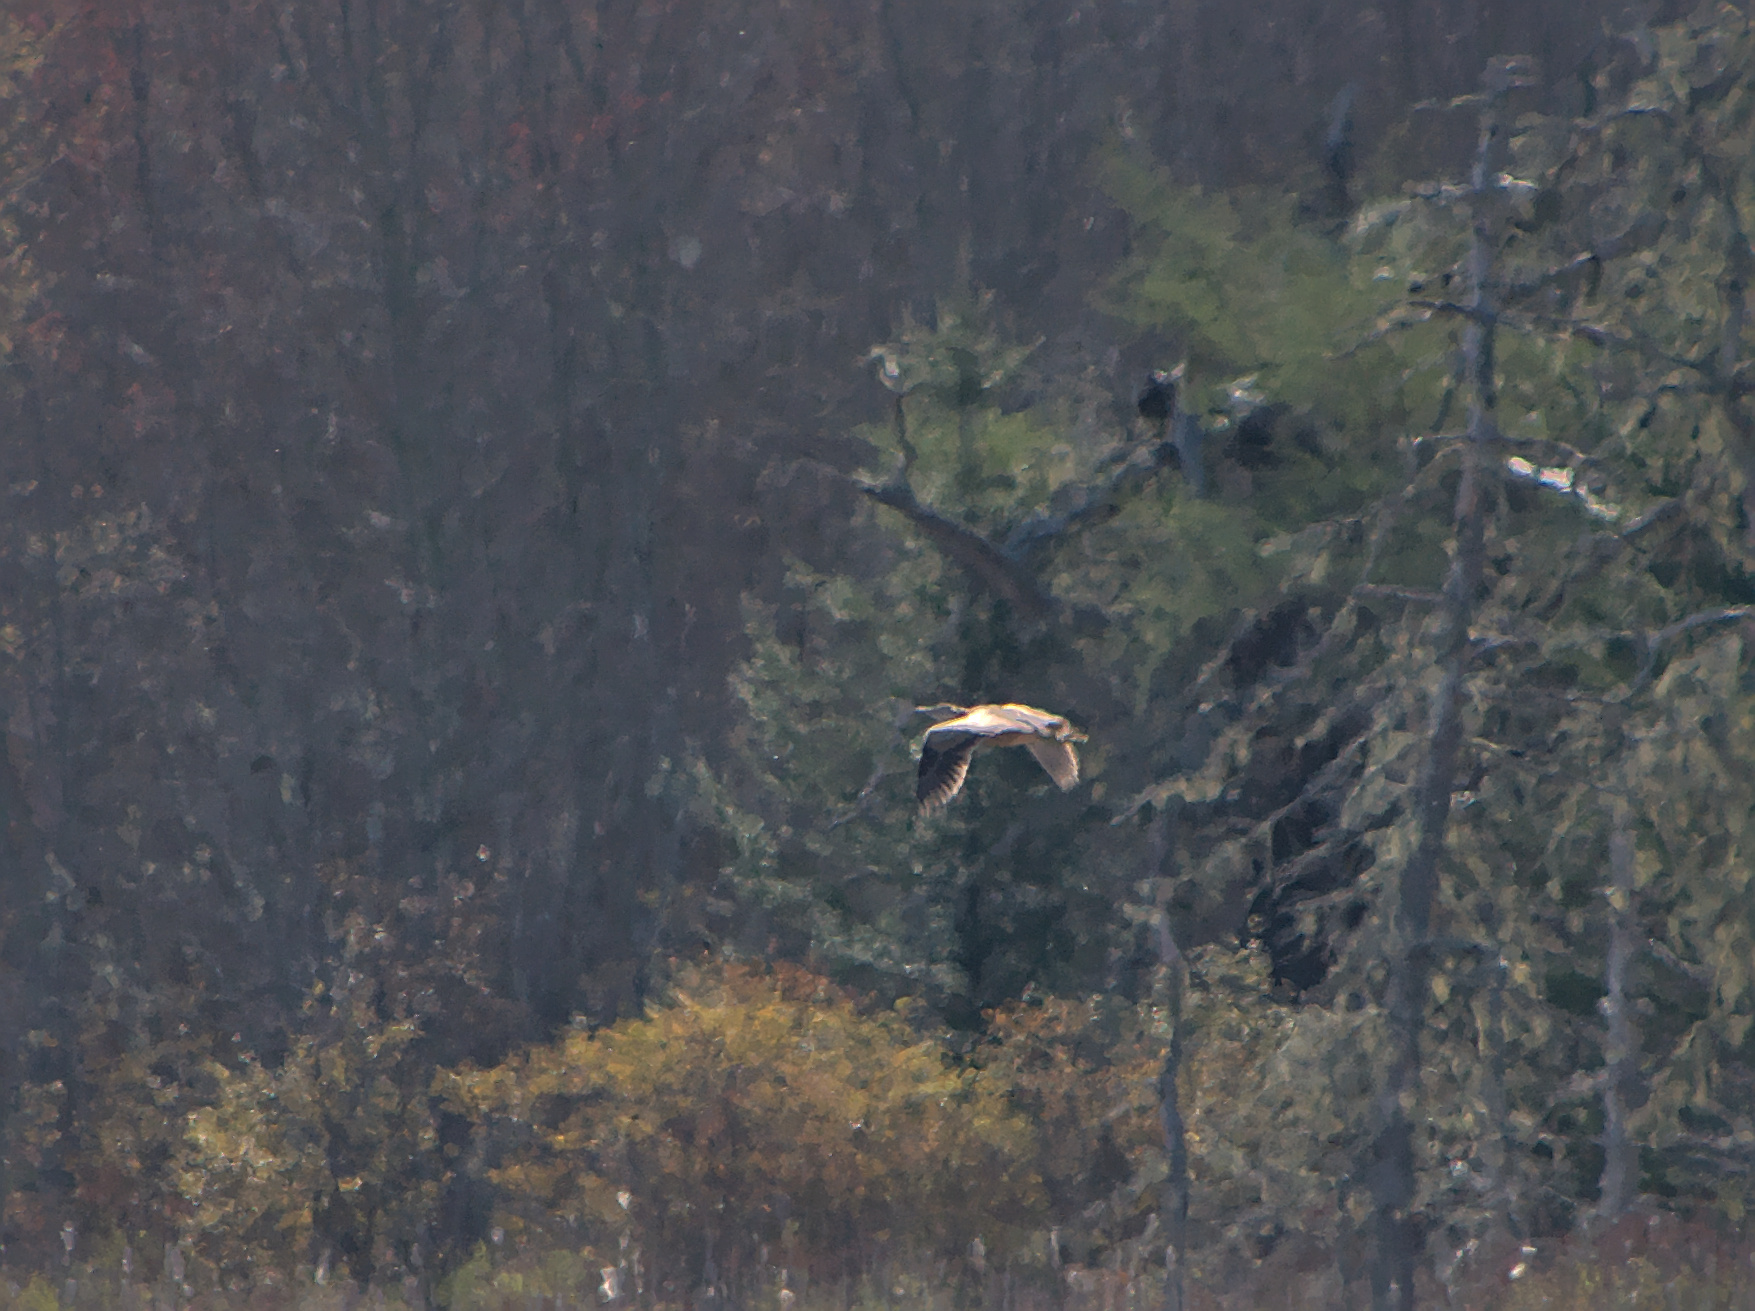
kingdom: Animalia
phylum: Chordata
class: Aves
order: Pelecaniformes
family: Ardeidae
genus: Botaurus
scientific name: Botaurus lentiginosus
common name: American bittern
